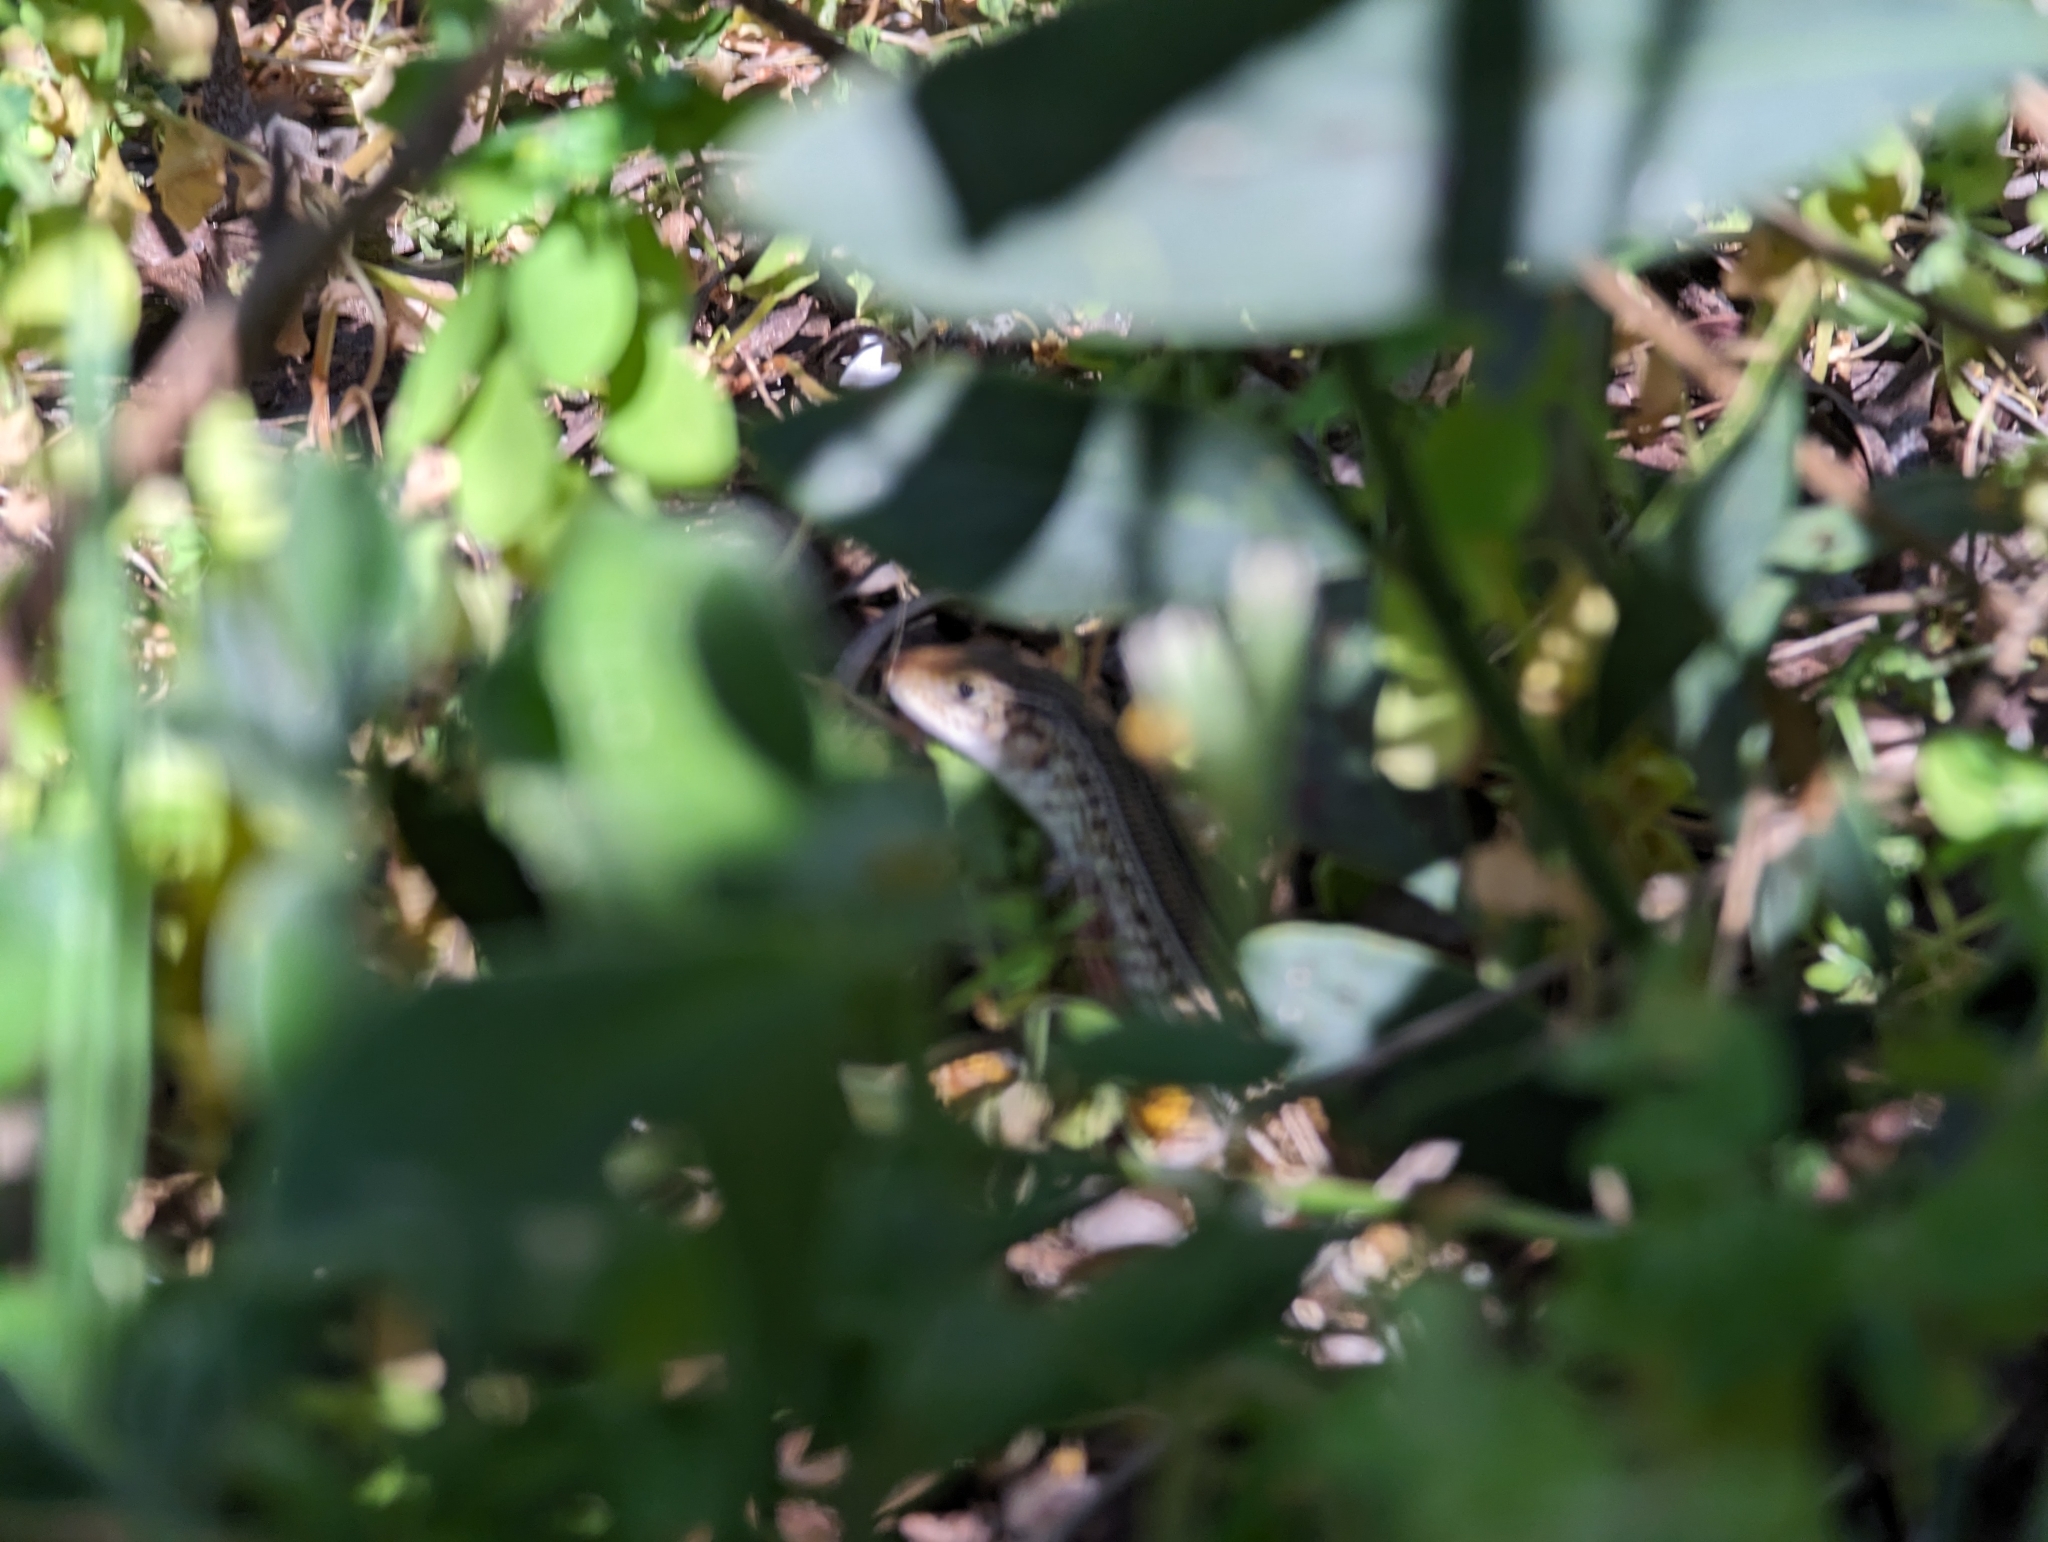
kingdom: Animalia
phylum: Chordata
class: Squamata
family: Scincidae
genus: Ctenotus
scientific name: Ctenotus australis
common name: Western limestone ctenotus
